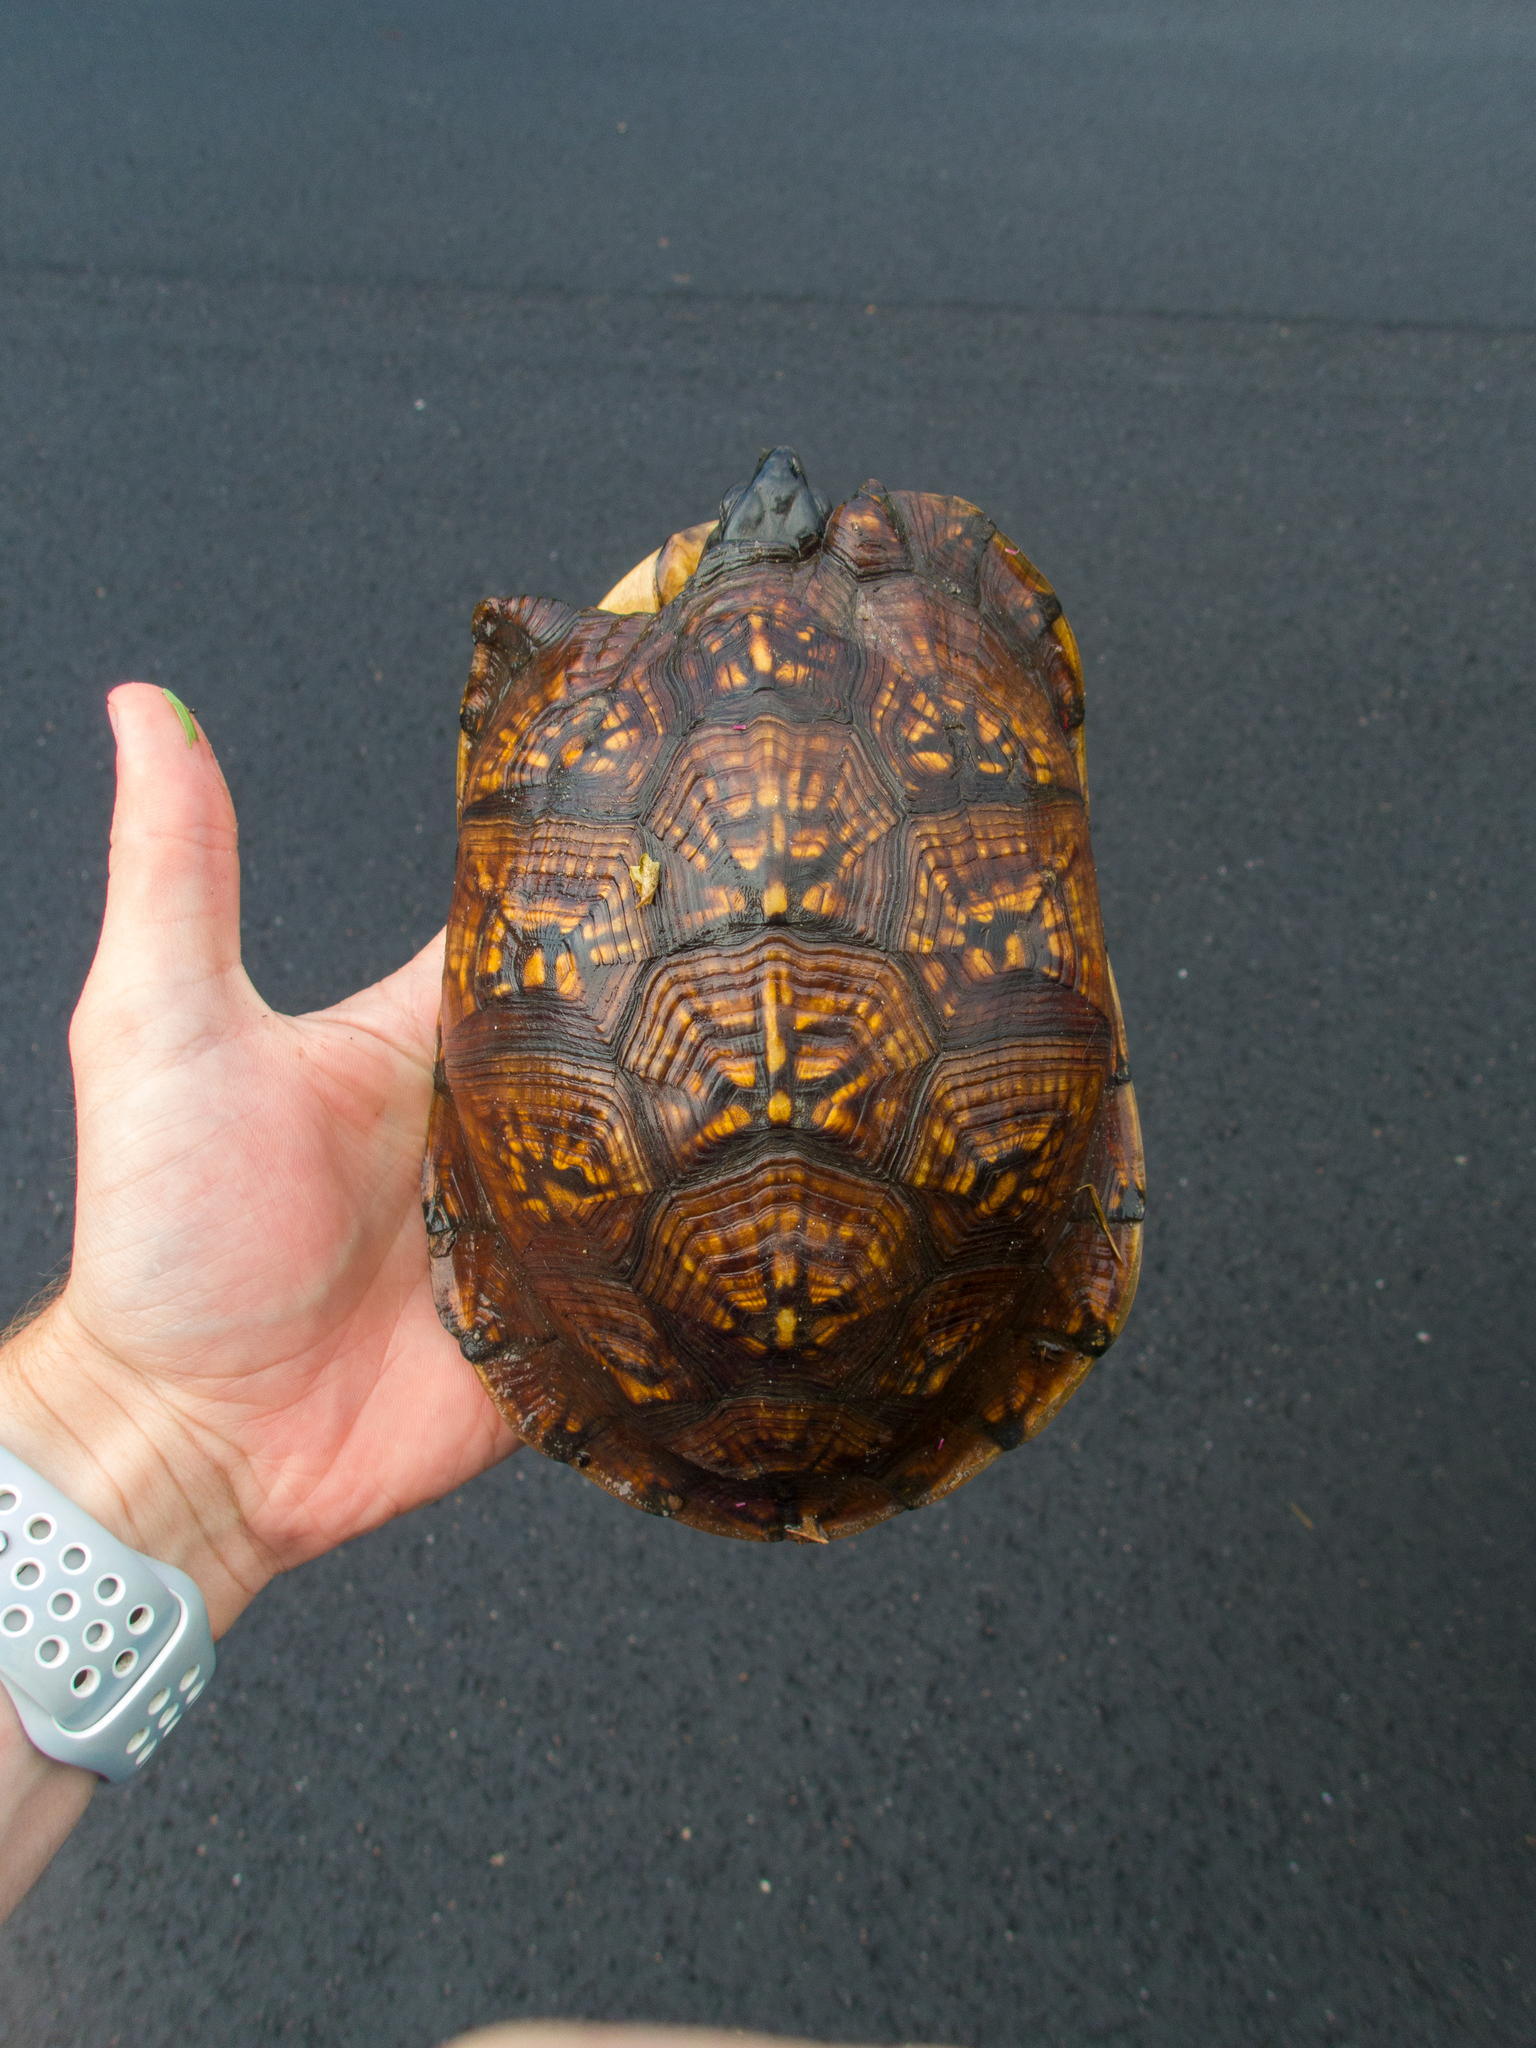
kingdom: Animalia
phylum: Chordata
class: Testudines
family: Emydidae
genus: Terrapene
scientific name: Terrapene carolina
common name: Common box turtle
